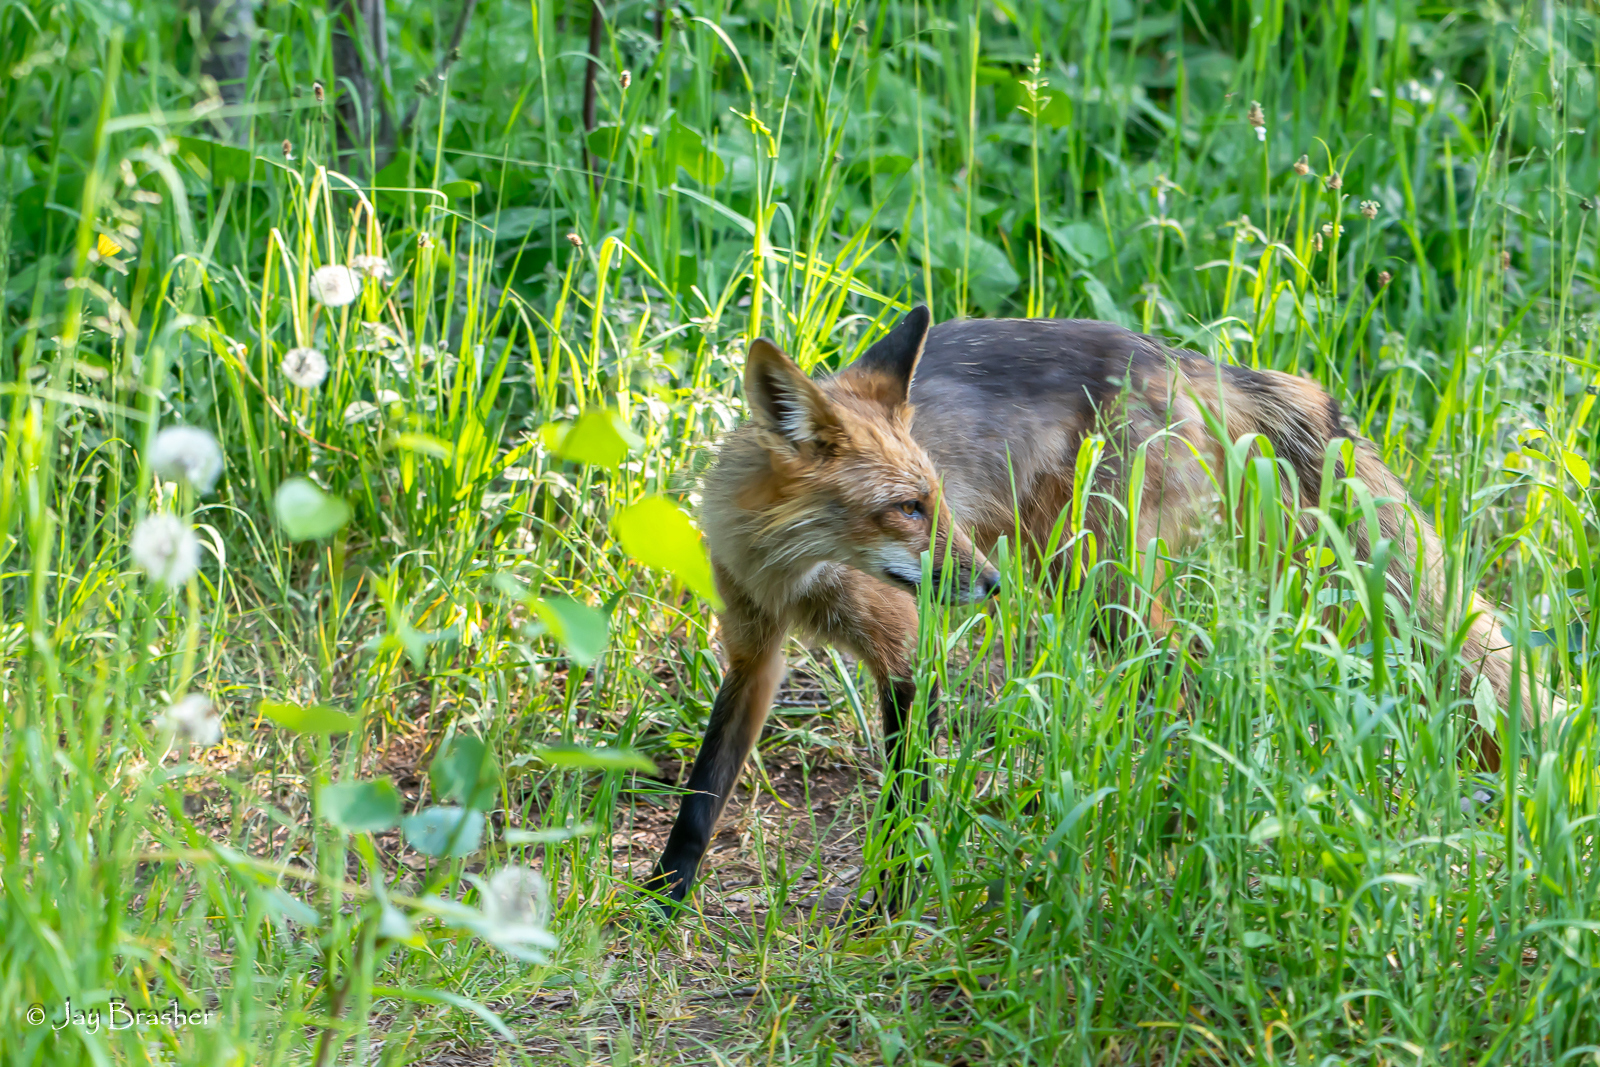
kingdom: Animalia
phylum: Chordata
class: Mammalia
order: Carnivora
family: Canidae
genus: Vulpes
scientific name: Vulpes vulpes
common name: Red fox
